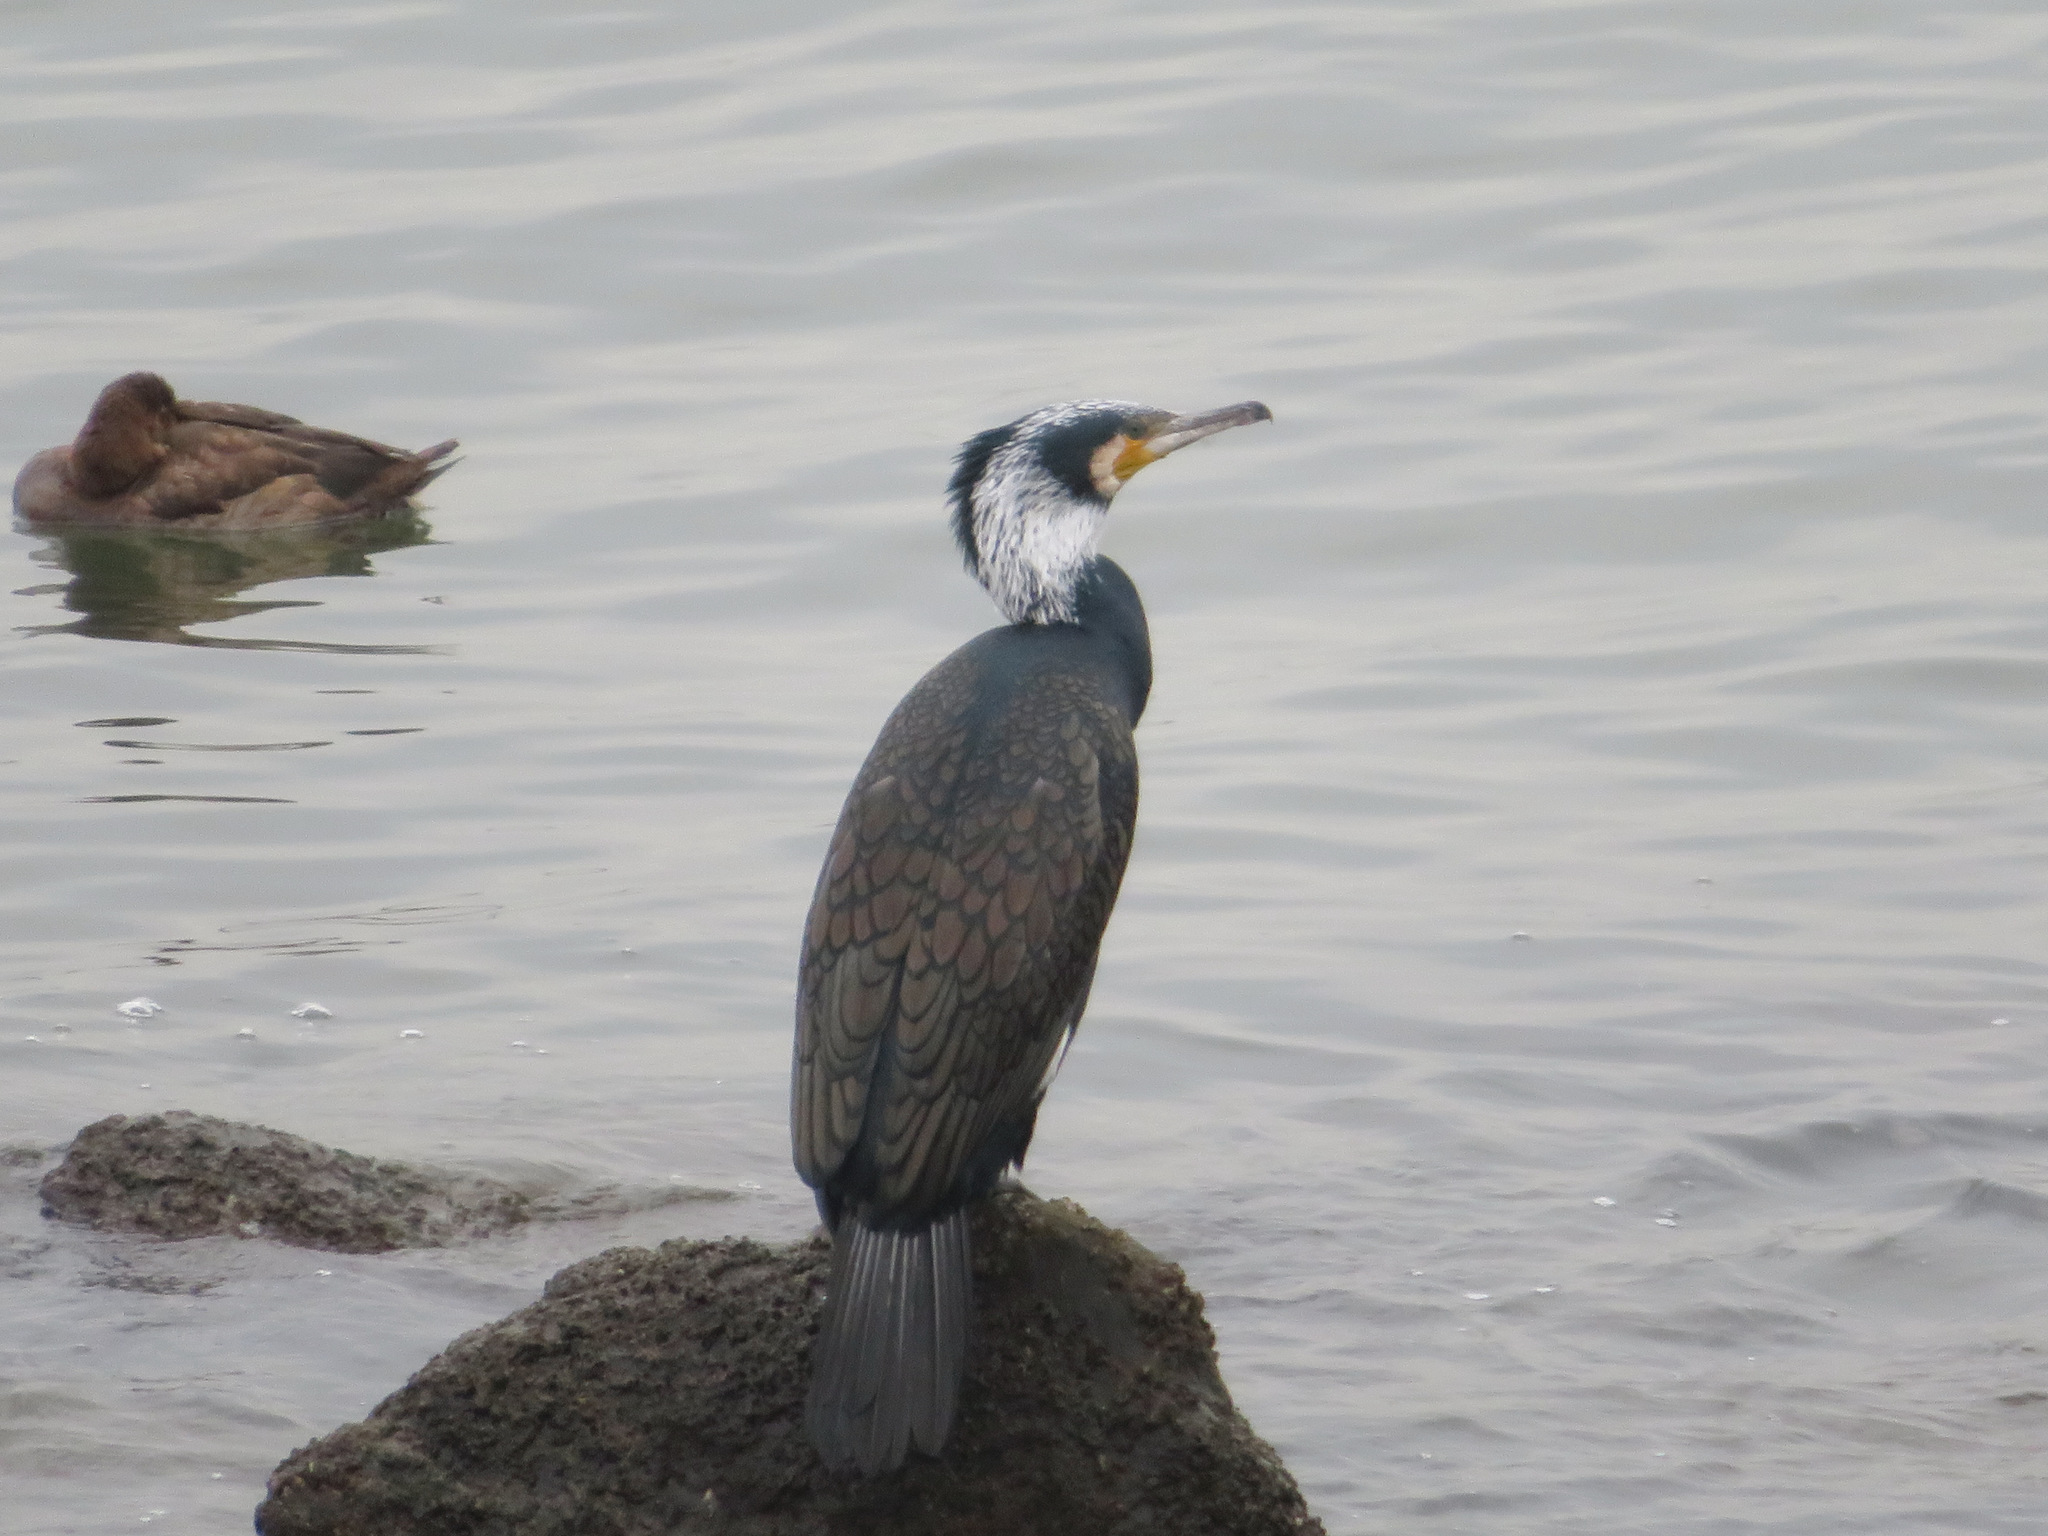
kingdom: Animalia
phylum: Chordata
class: Aves
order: Suliformes
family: Phalacrocoracidae
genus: Phalacrocorax
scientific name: Phalacrocorax carbo
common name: Great cormorant
